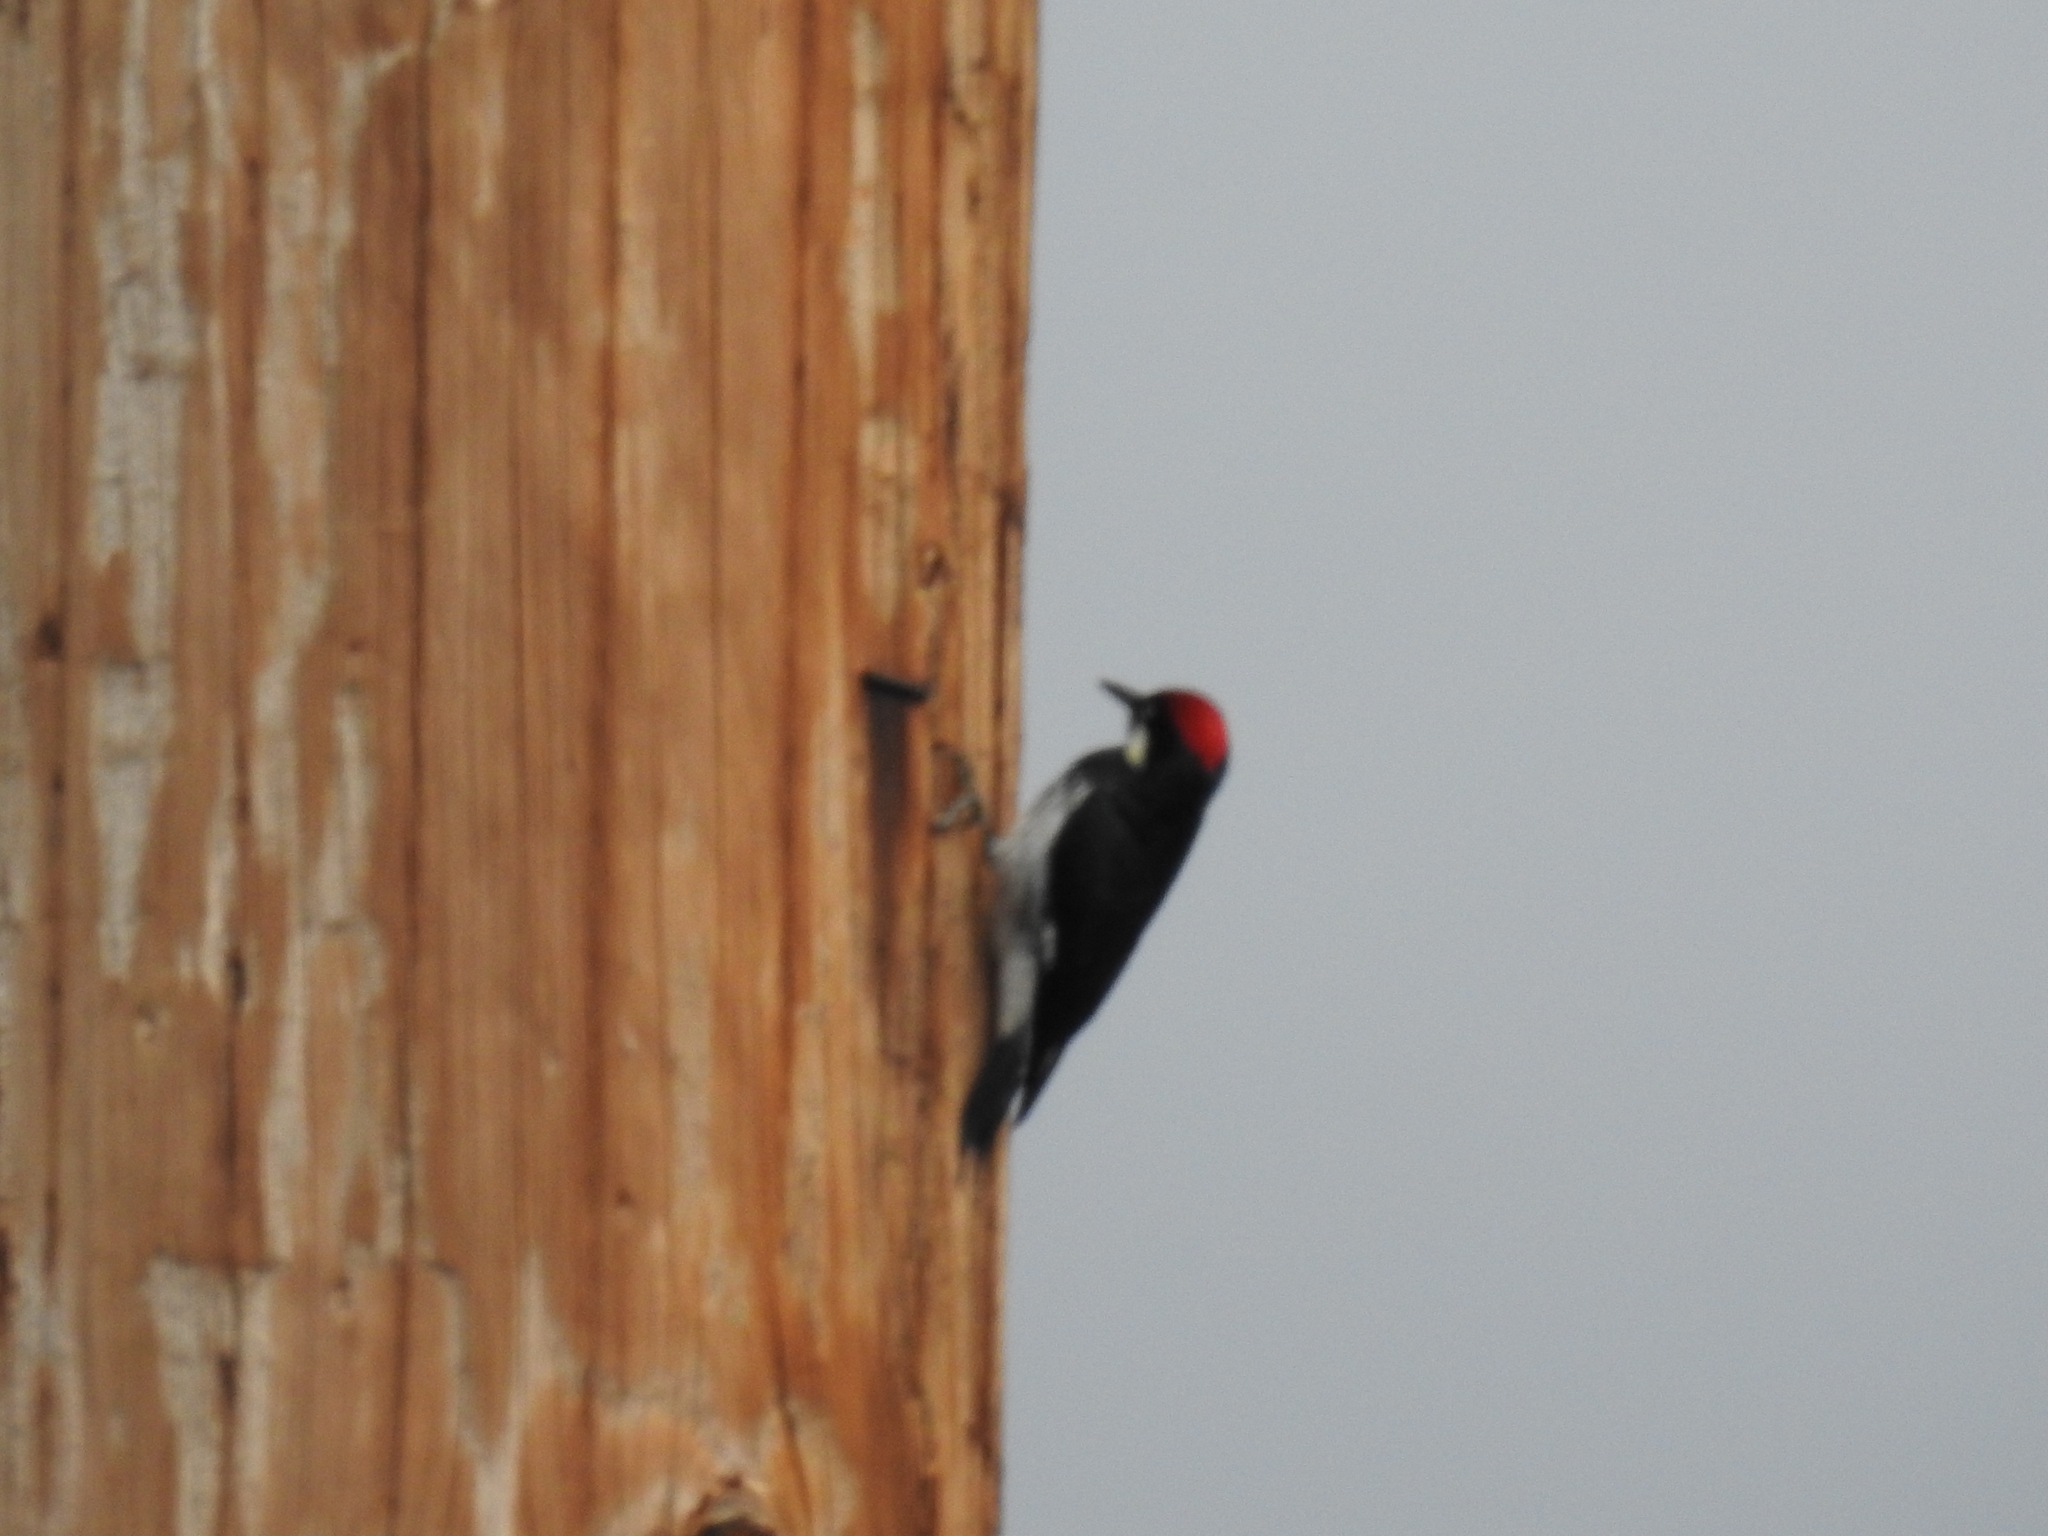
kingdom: Animalia
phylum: Chordata
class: Aves
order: Piciformes
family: Picidae
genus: Melanerpes
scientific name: Melanerpes formicivorus
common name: Acorn woodpecker
